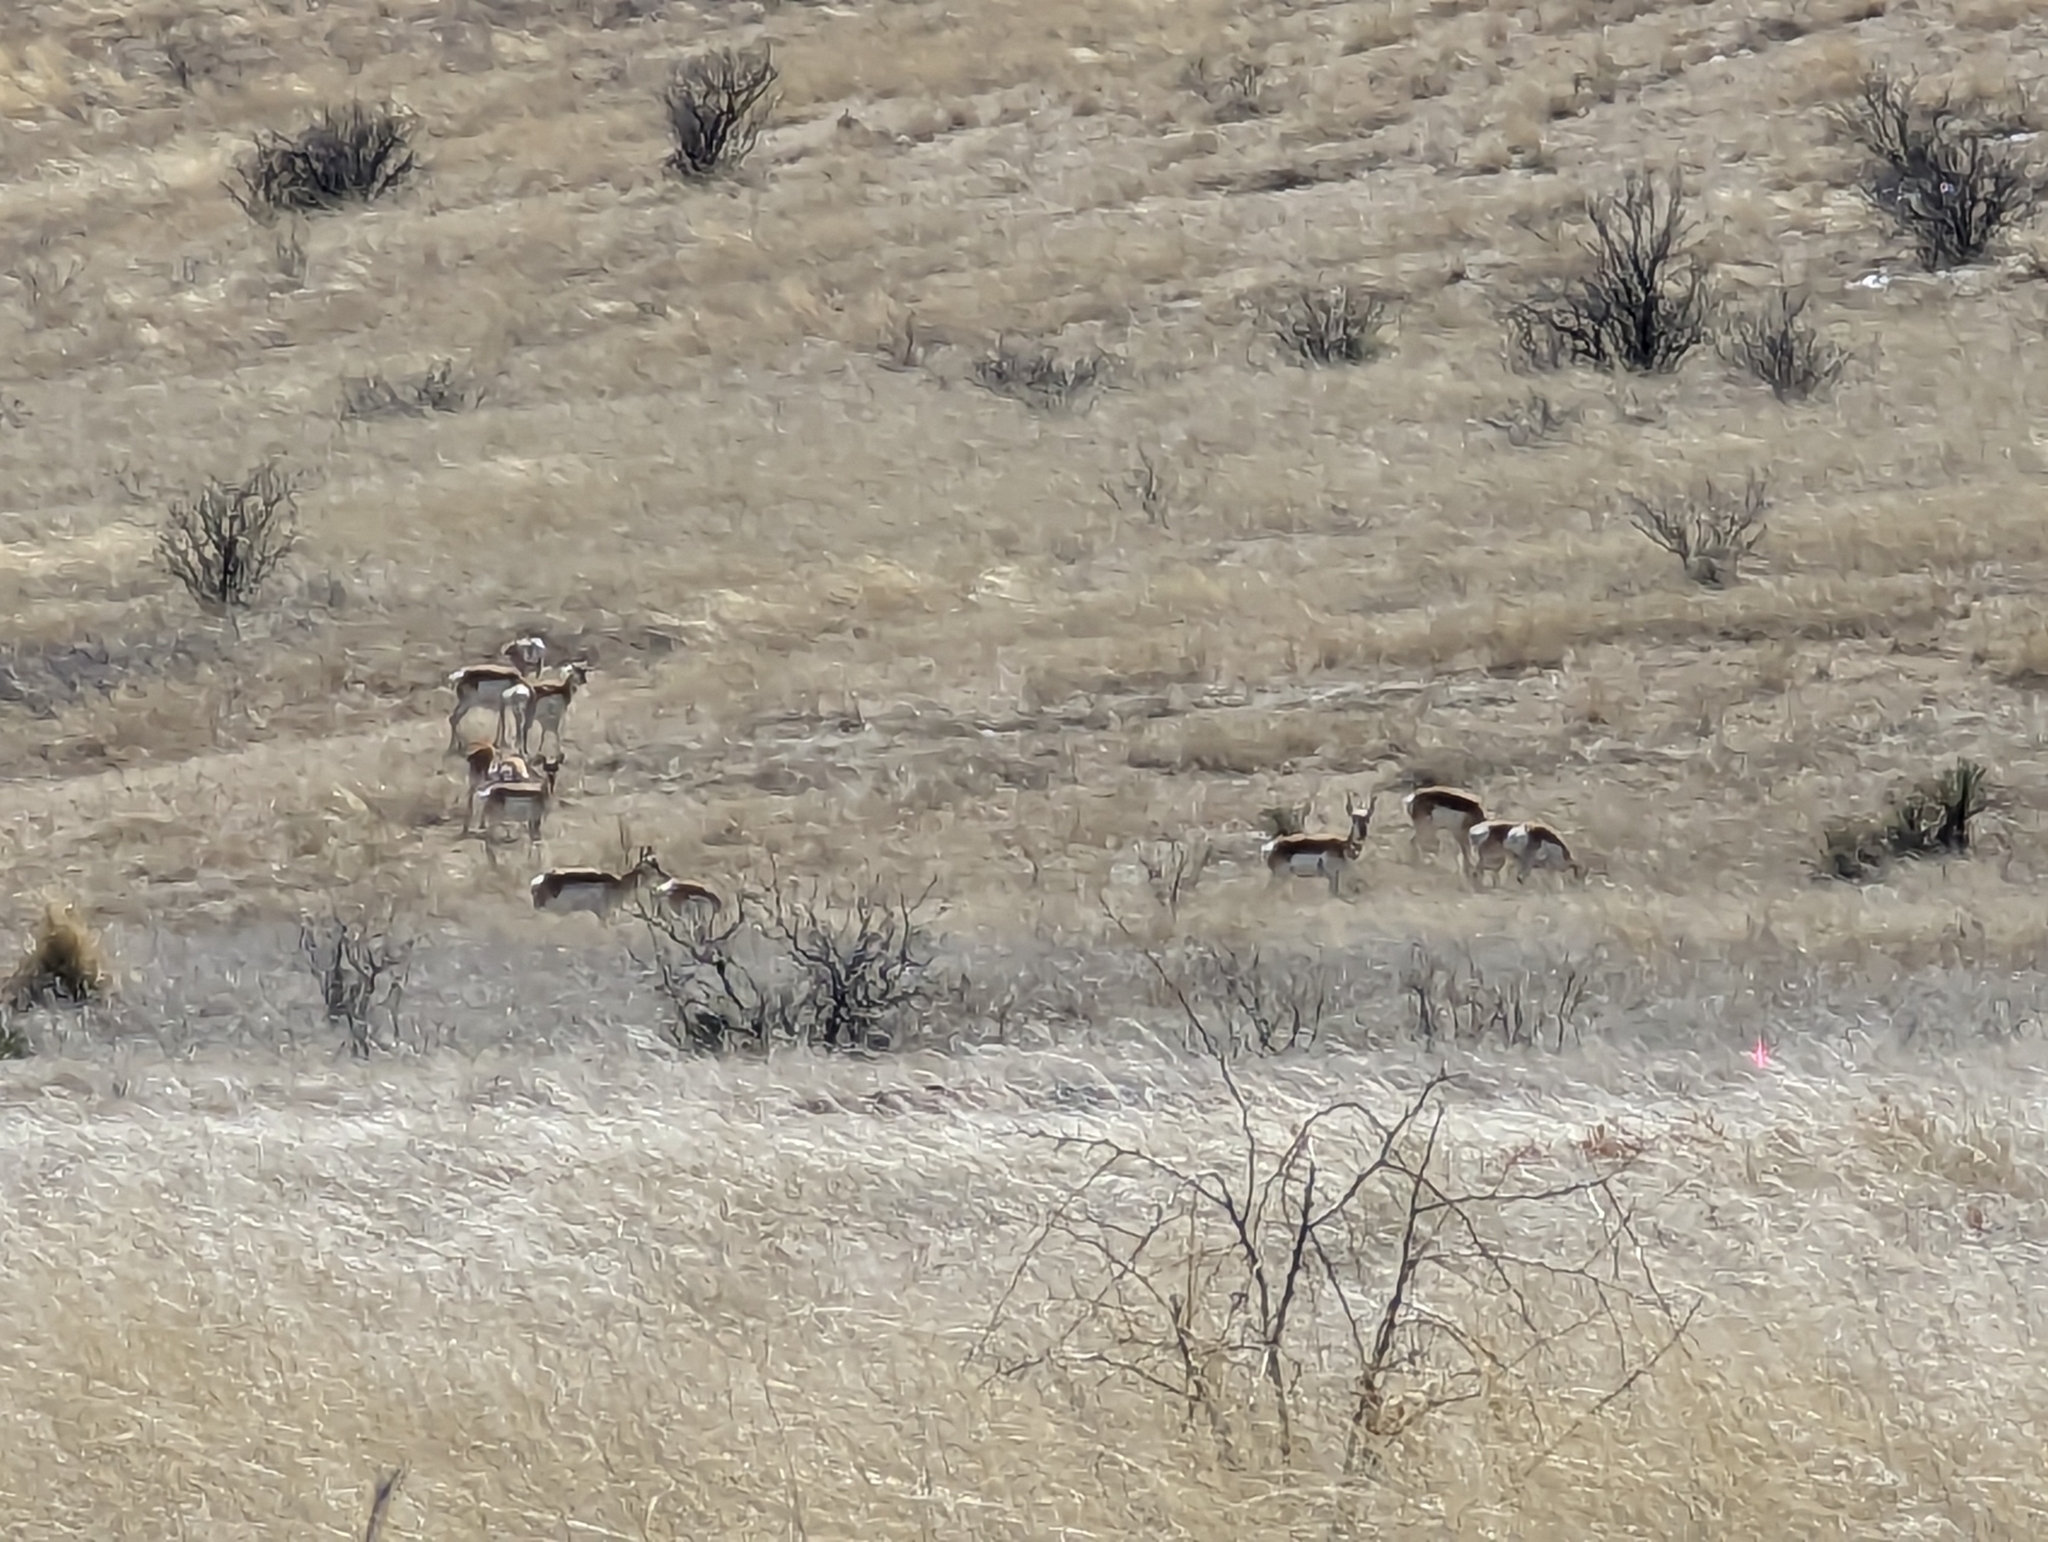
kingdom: Animalia
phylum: Chordata
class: Mammalia
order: Artiodactyla
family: Antilocapridae
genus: Antilocapra
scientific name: Antilocapra americana
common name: Pronghorn
